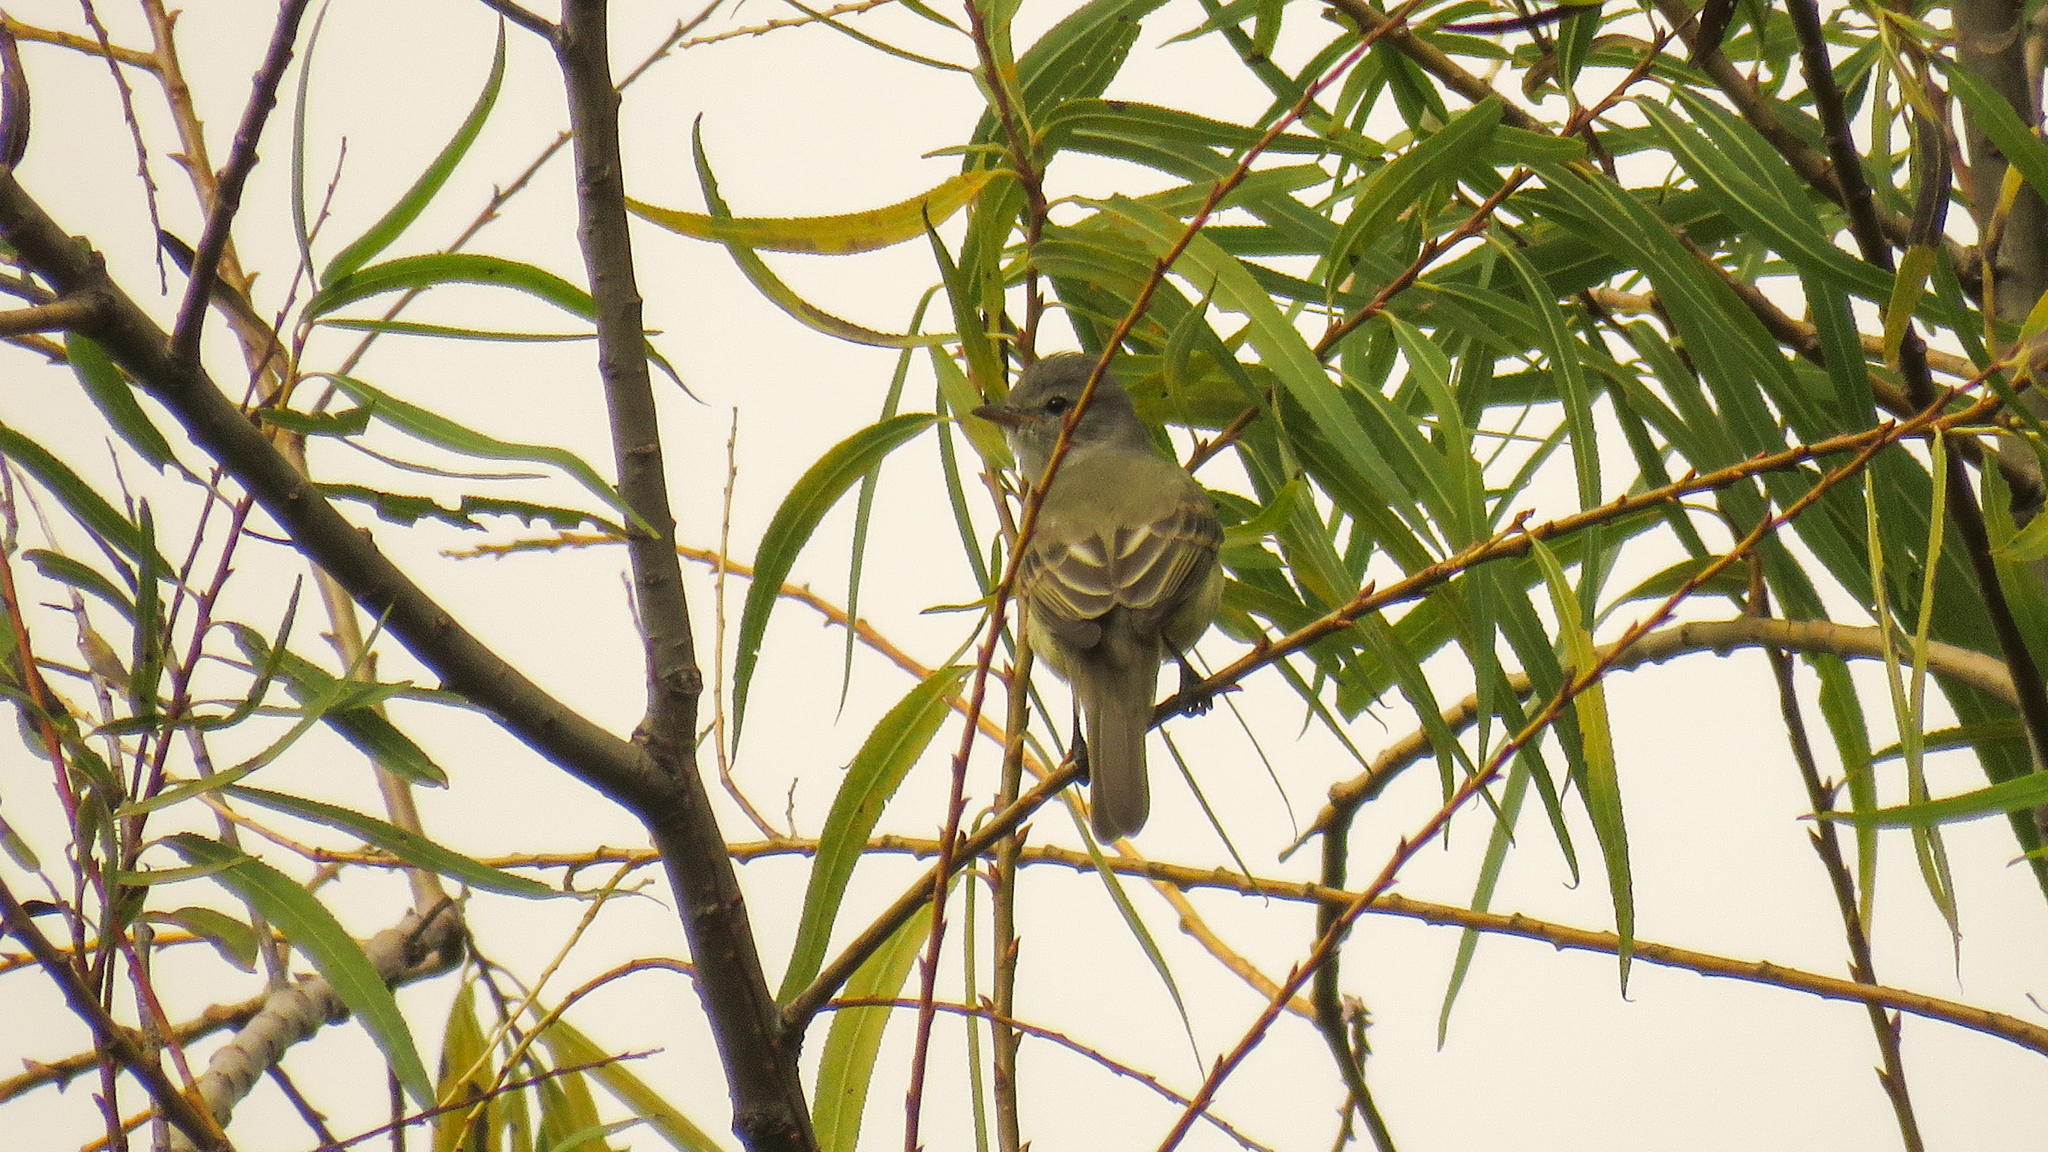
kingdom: Animalia
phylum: Chordata
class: Aves
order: Passeriformes
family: Tyrannidae
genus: Camptostoma
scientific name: Camptostoma obsoletum
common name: Southern beardless-tyrannulet
